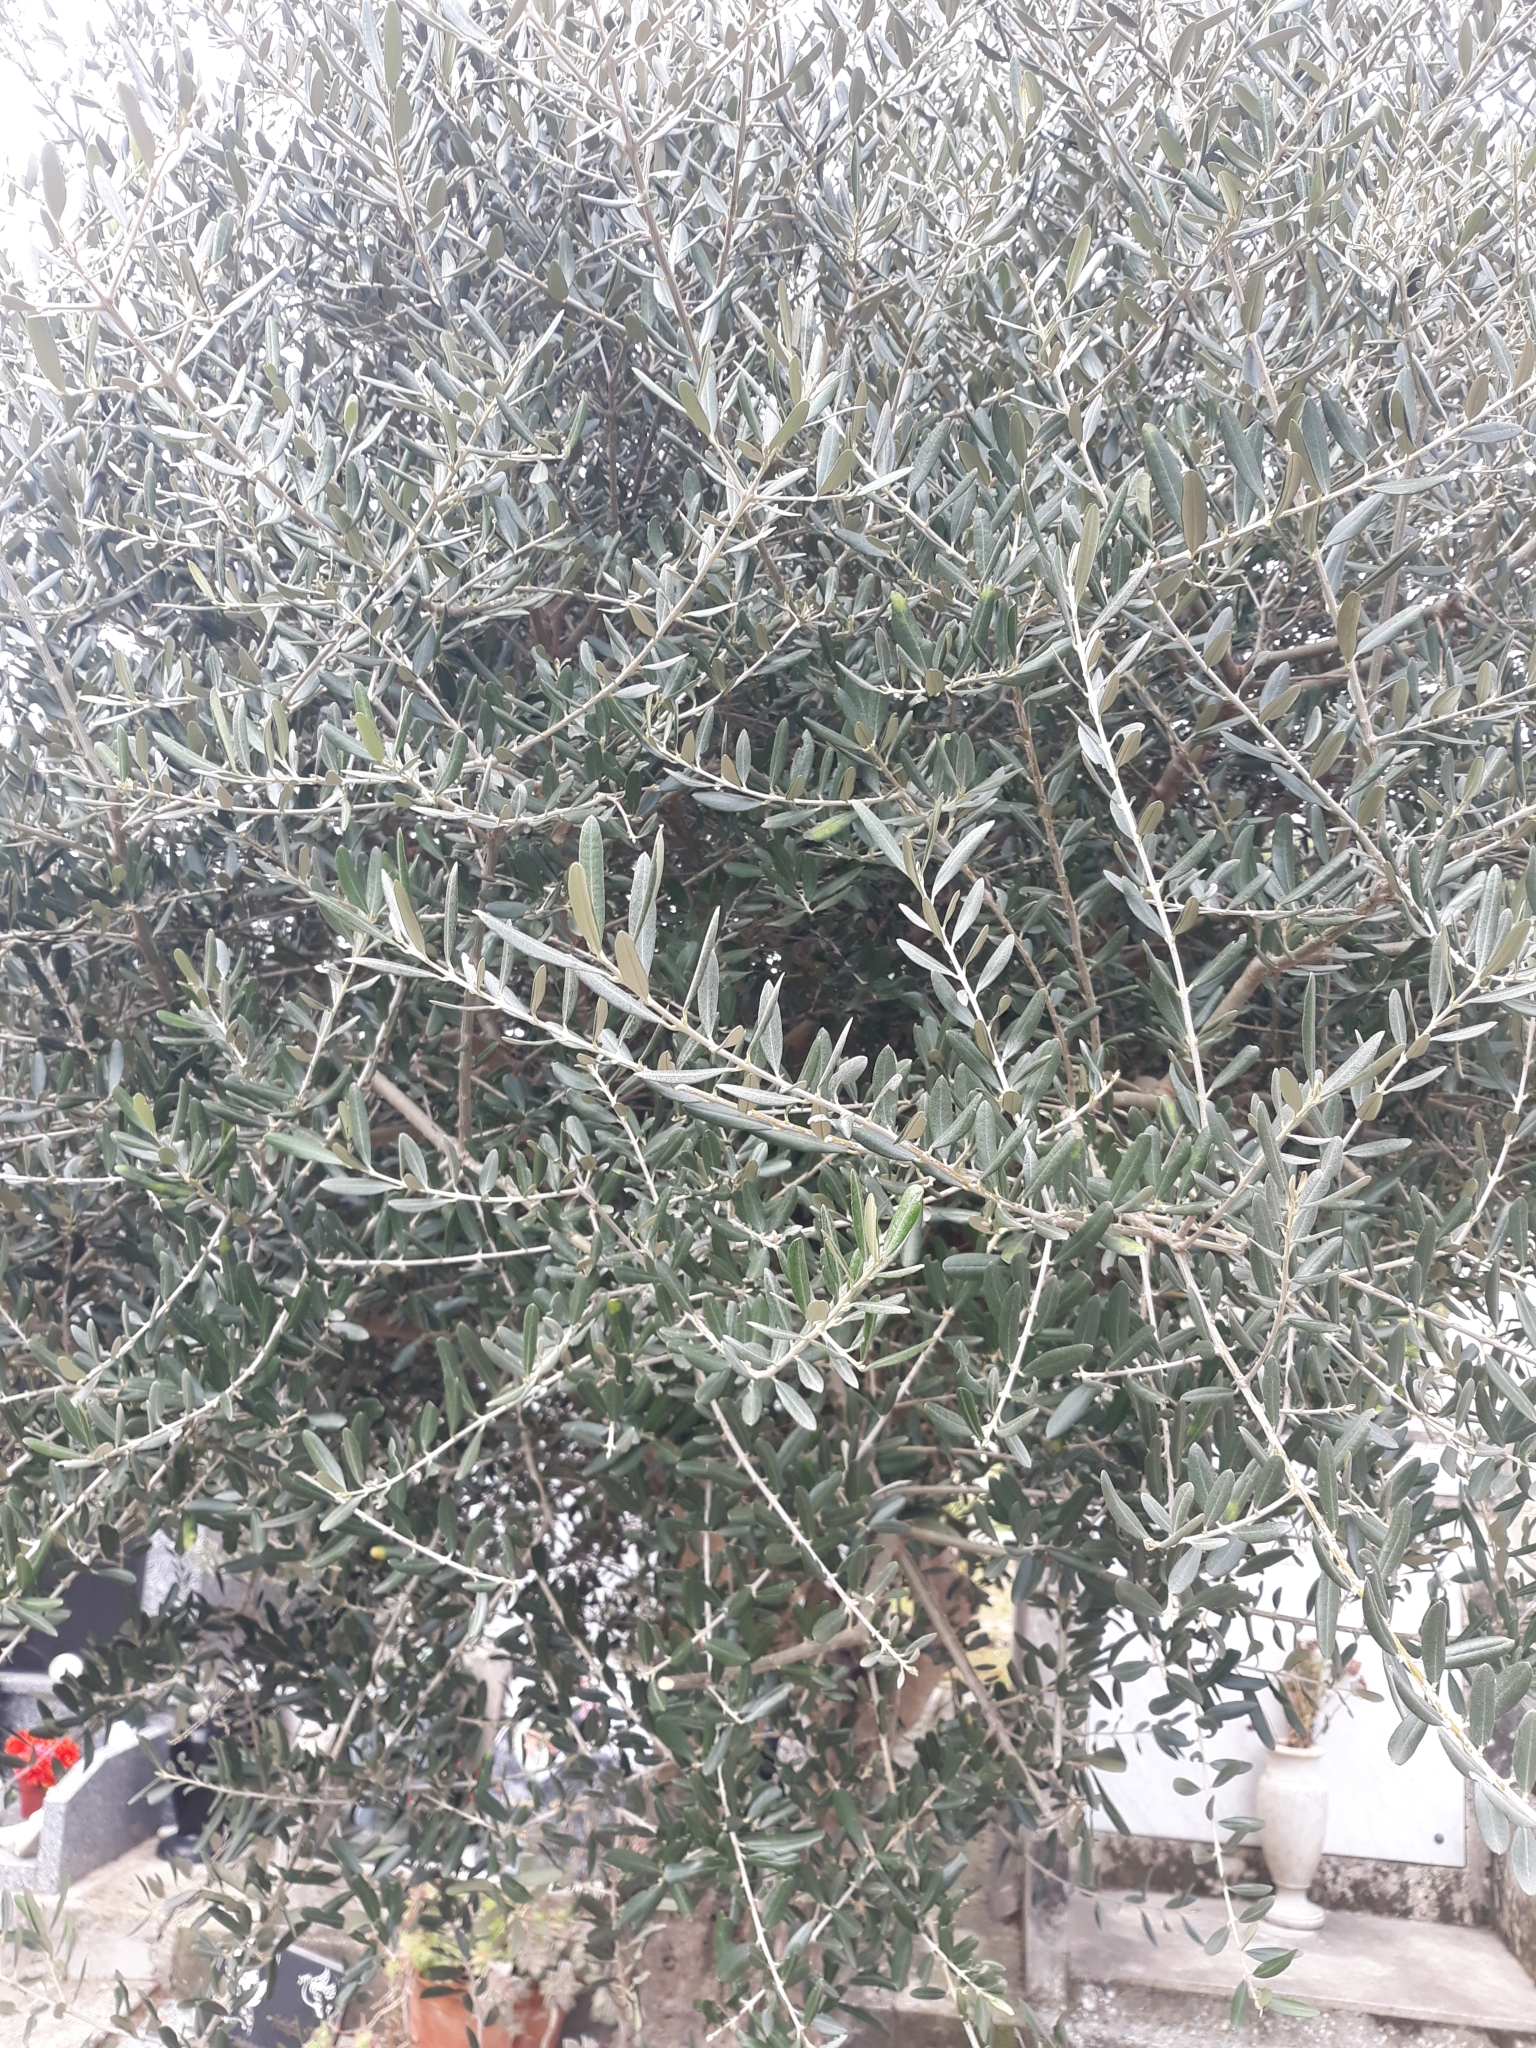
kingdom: Plantae
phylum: Tracheophyta
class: Magnoliopsida
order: Lamiales
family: Oleaceae
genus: Olea
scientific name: Olea europaea
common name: Olive
